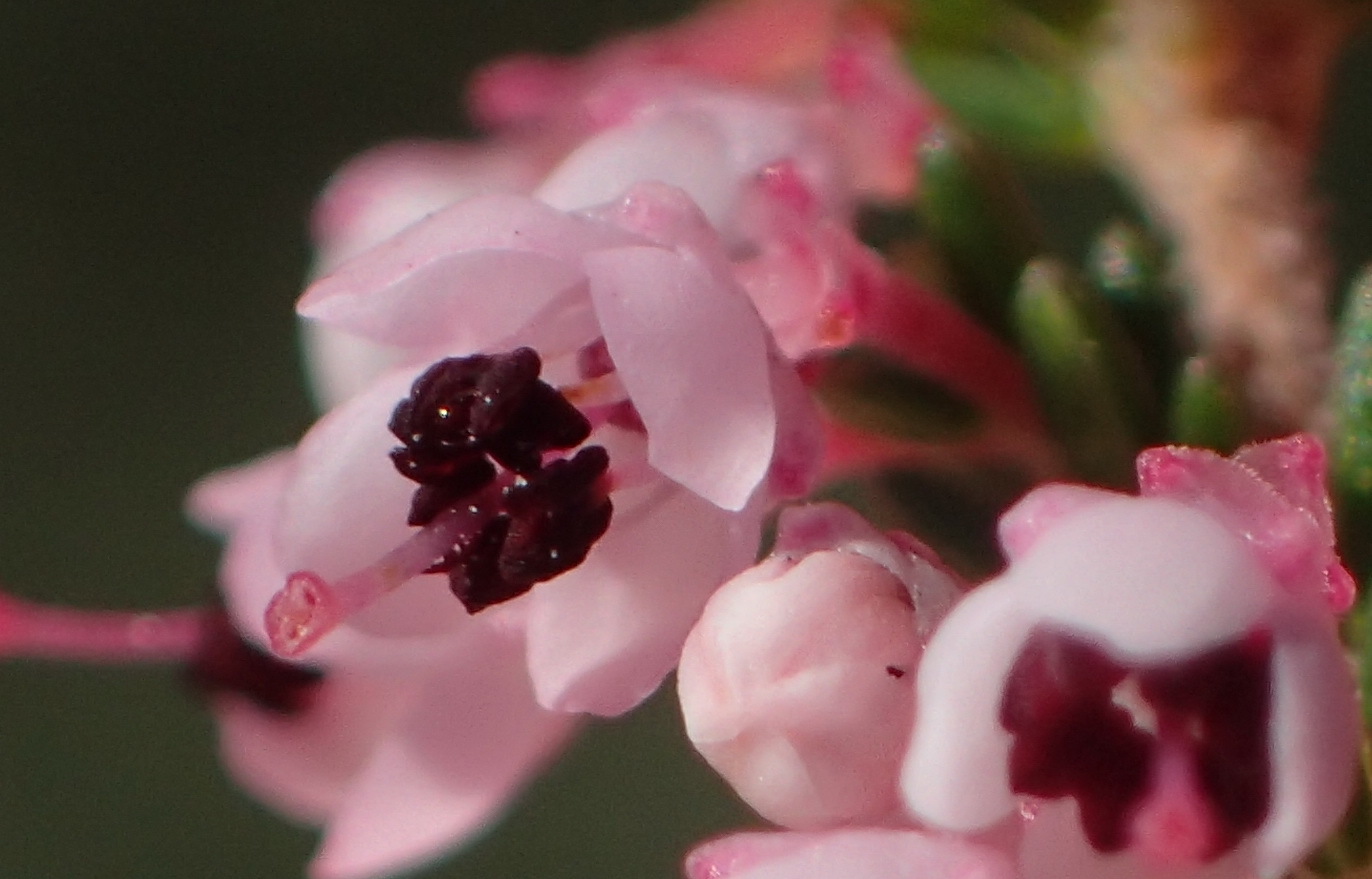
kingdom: Plantae
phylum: Tracheophyta
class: Magnoliopsida
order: Ericales
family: Ericaceae
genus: Erica
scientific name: Erica sparsa
